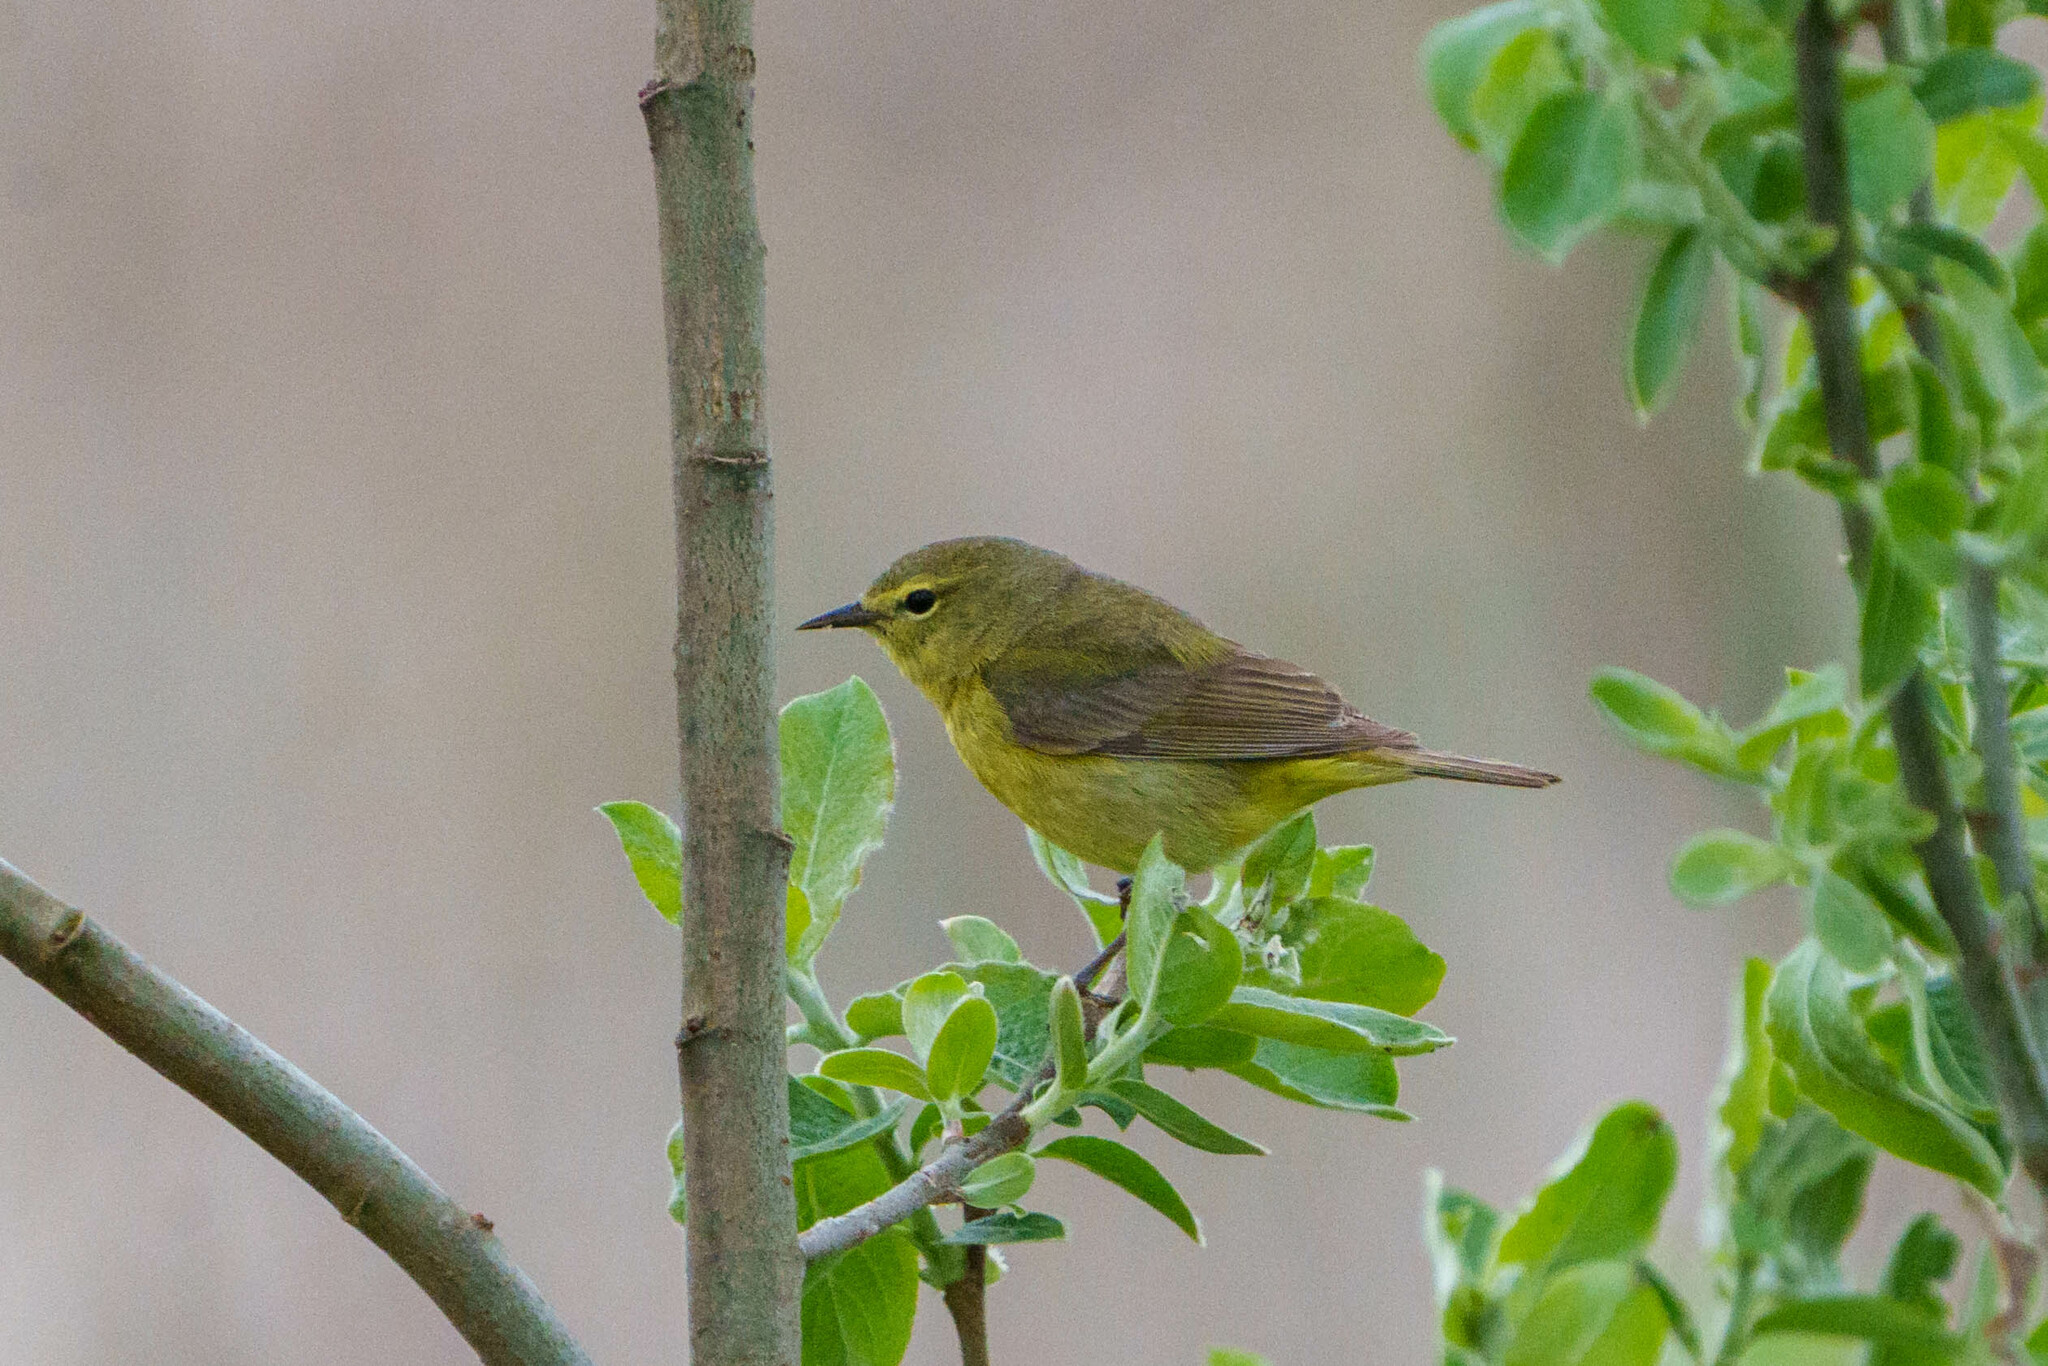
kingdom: Animalia
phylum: Chordata
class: Aves
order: Passeriformes
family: Parulidae
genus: Leiothlypis
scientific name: Leiothlypis celata
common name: Orange-crowned warbler
